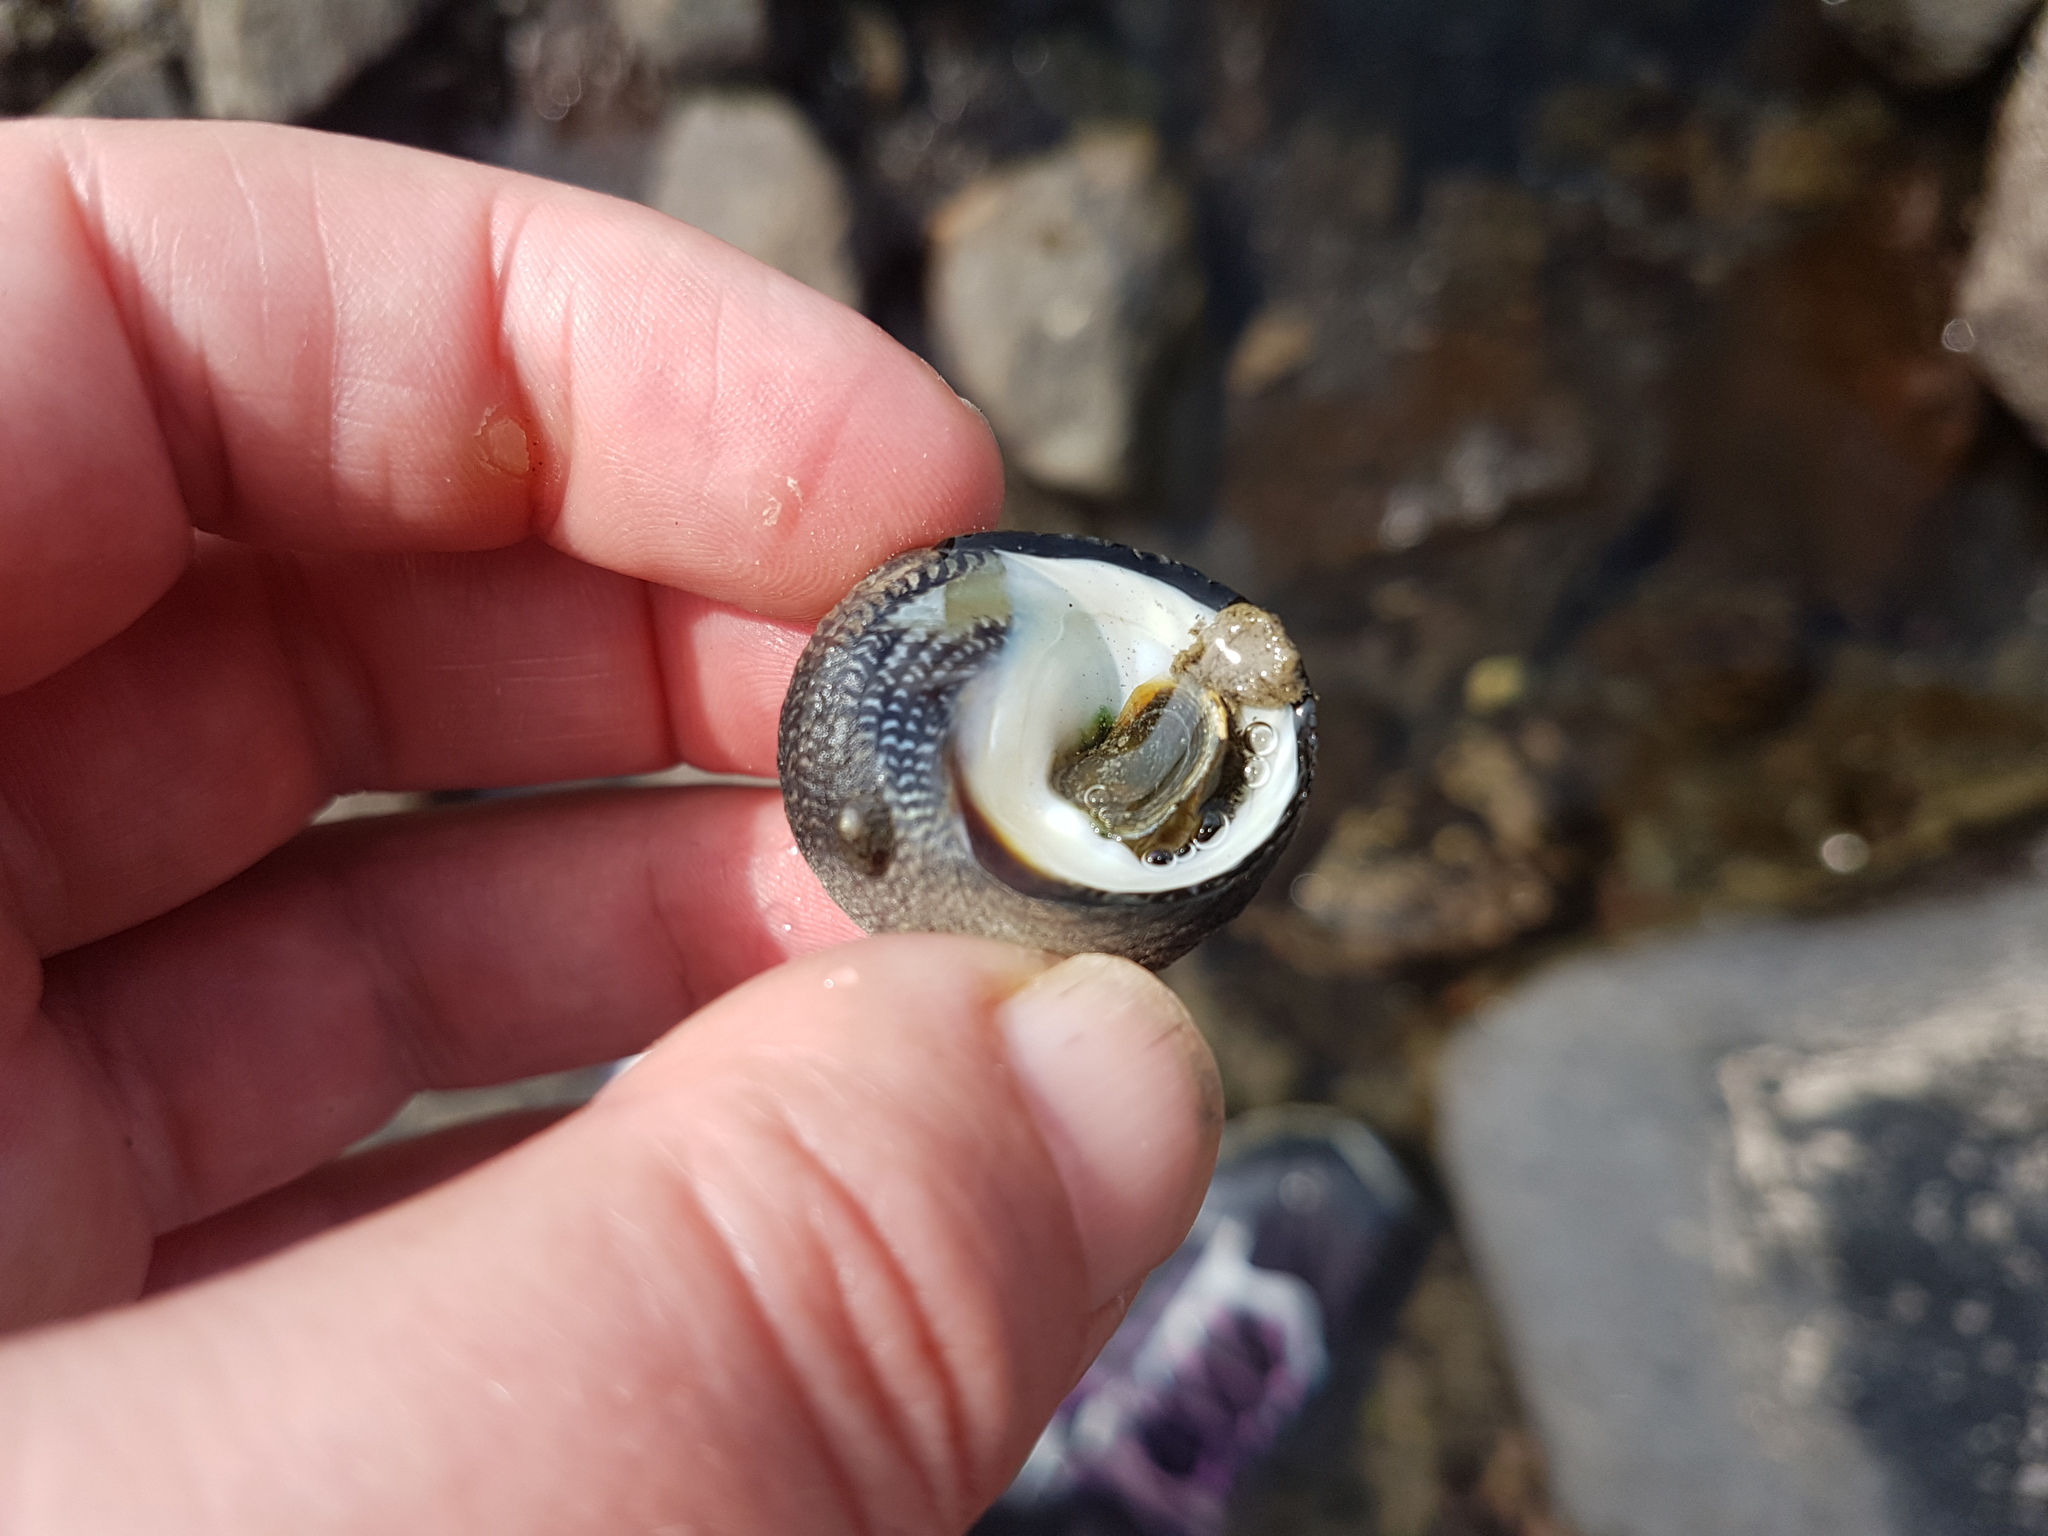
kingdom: Animalia
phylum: Mollusca
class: Gastropoda
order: Trochida
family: Trochidae
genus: Diloma
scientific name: Diloma aethiops
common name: Scorched monodont
